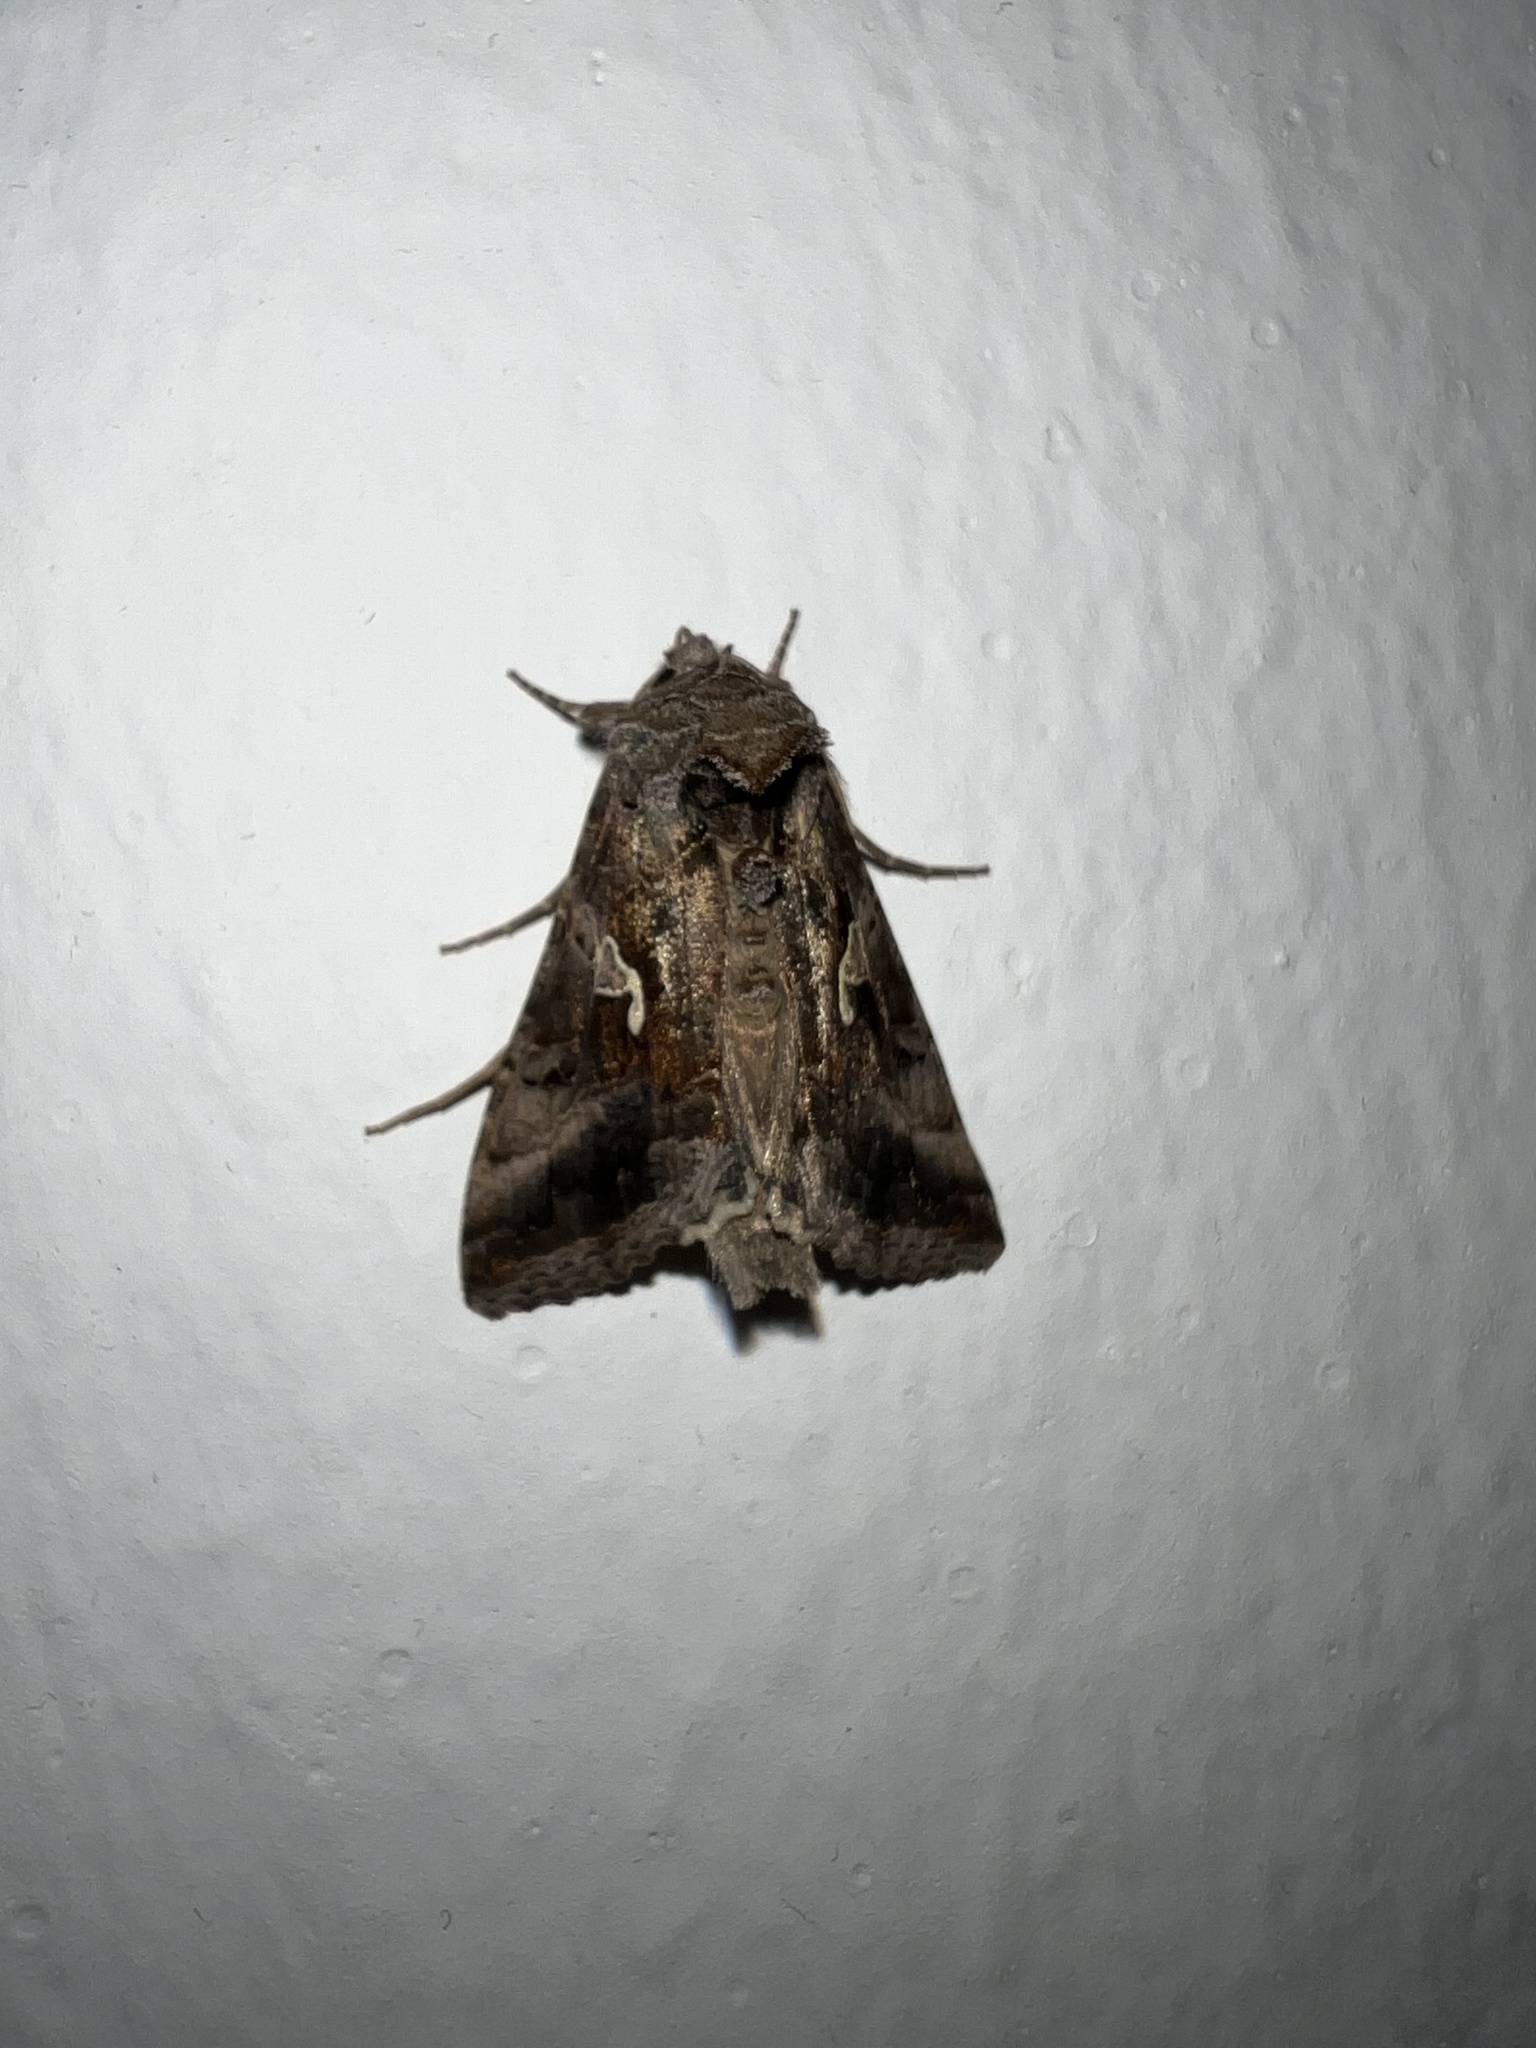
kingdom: Animalia
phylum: Arthropoda
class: Insecta
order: Lepidoptera
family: Noctuidae
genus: Autographa
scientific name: Autographa gamma
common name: Silver y
